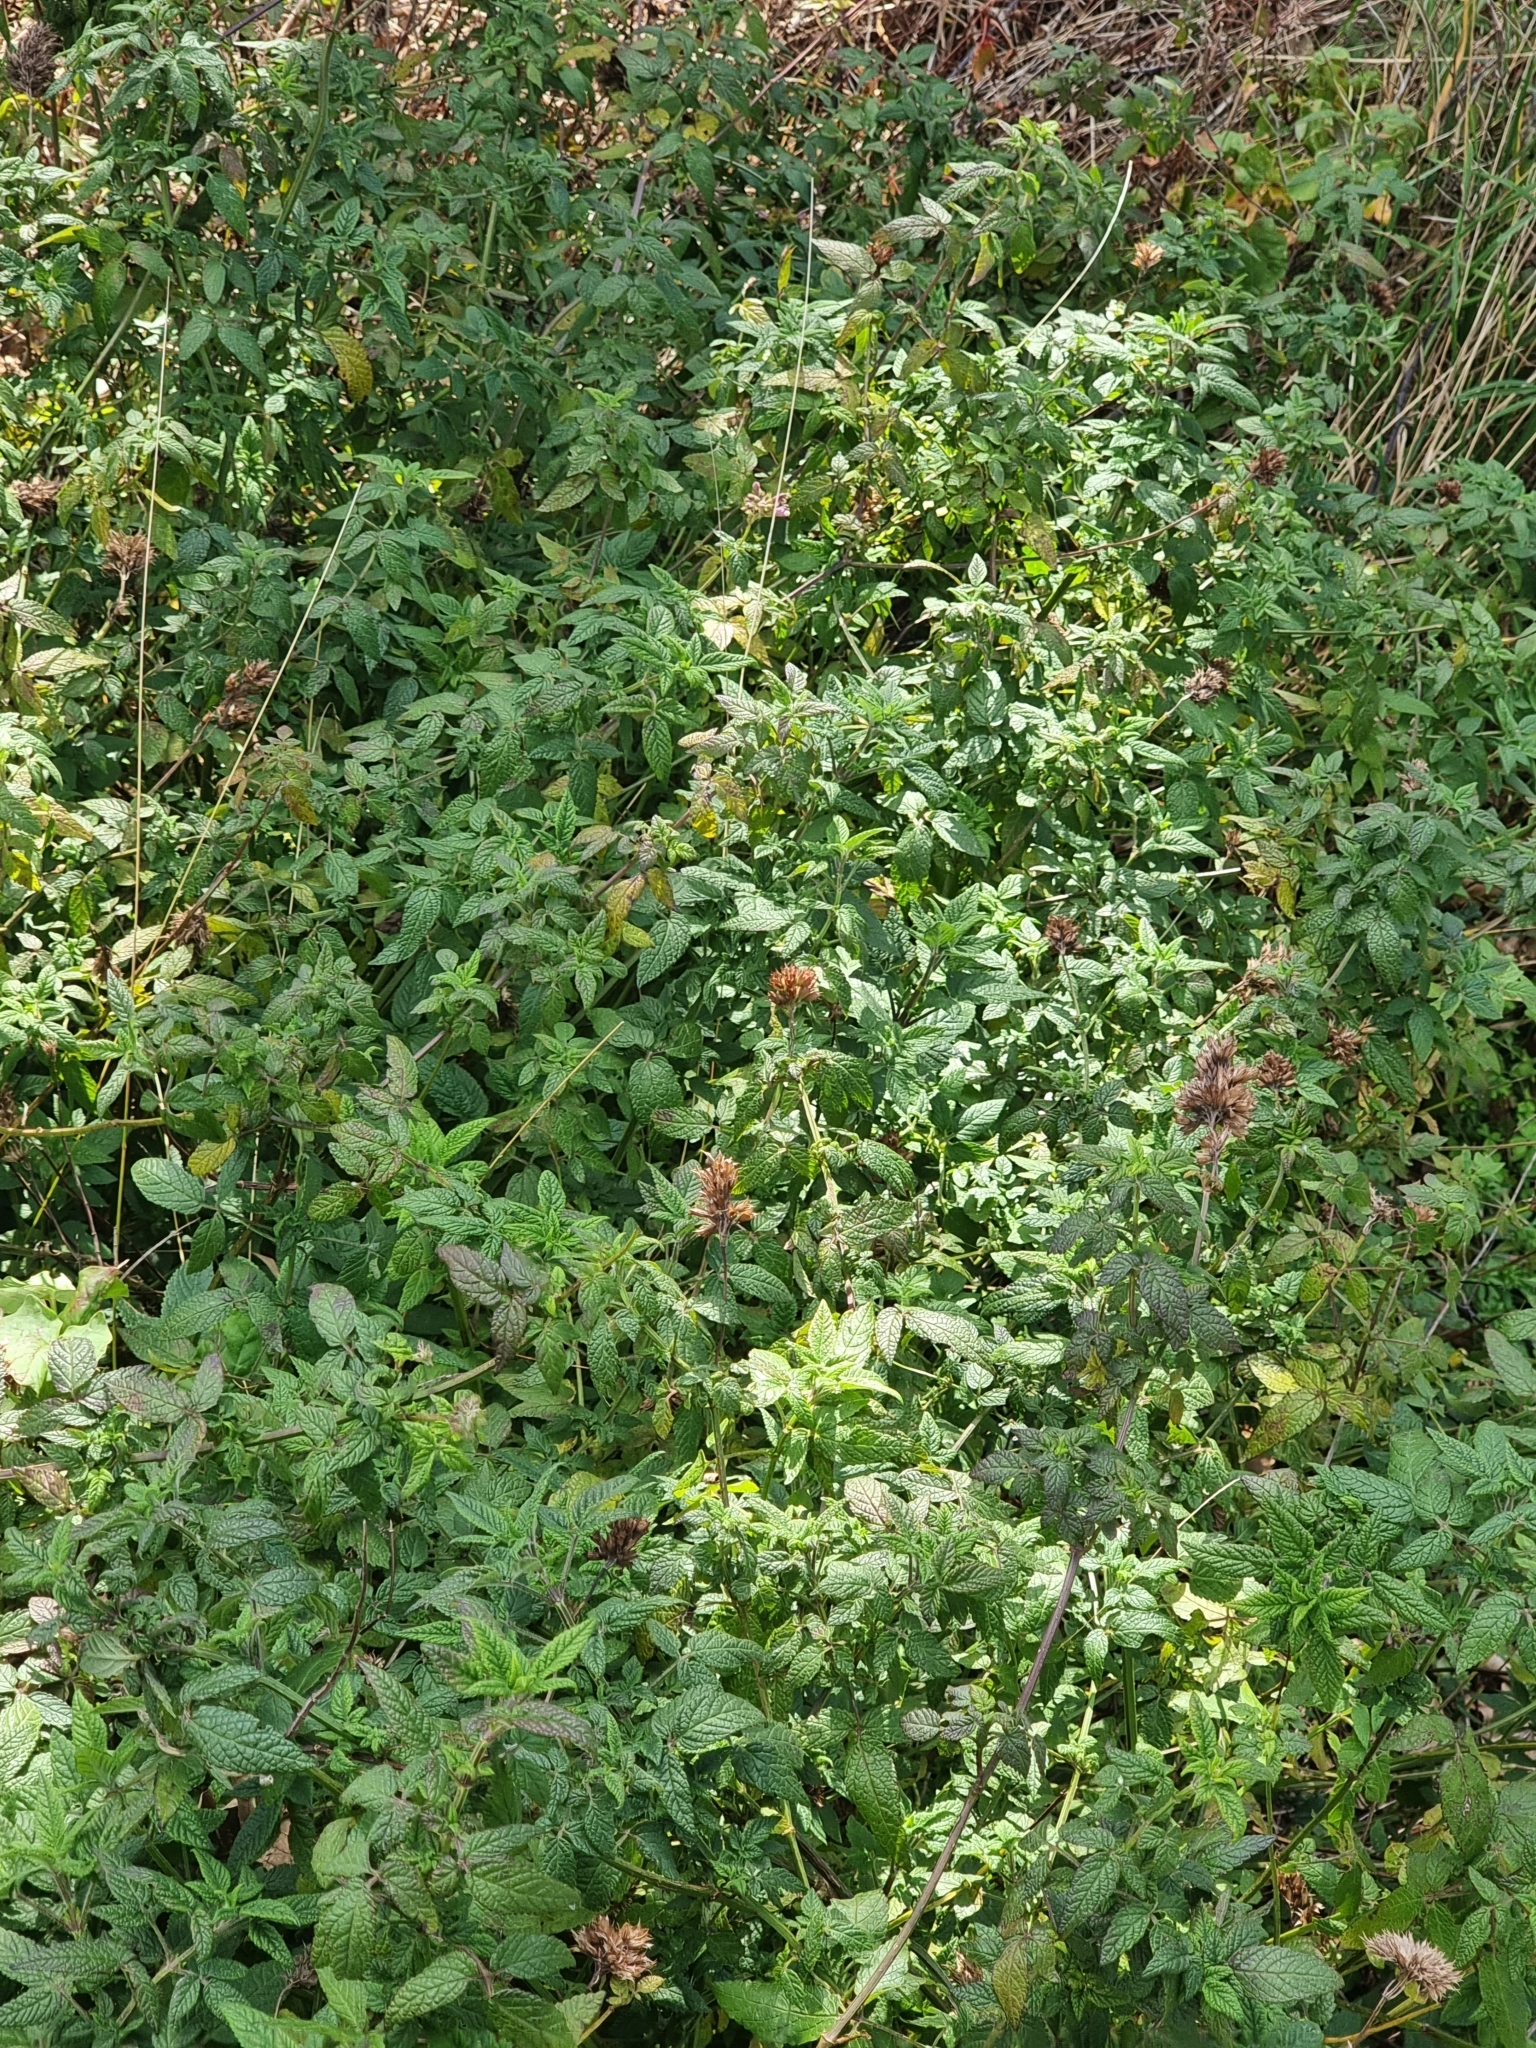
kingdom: Plantae
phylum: Tracheophyta
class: Magnoliopsida
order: Lamiales
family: Lamiaceae
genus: Cedronella
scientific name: Cedronella canariensis
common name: Canary islands balm
